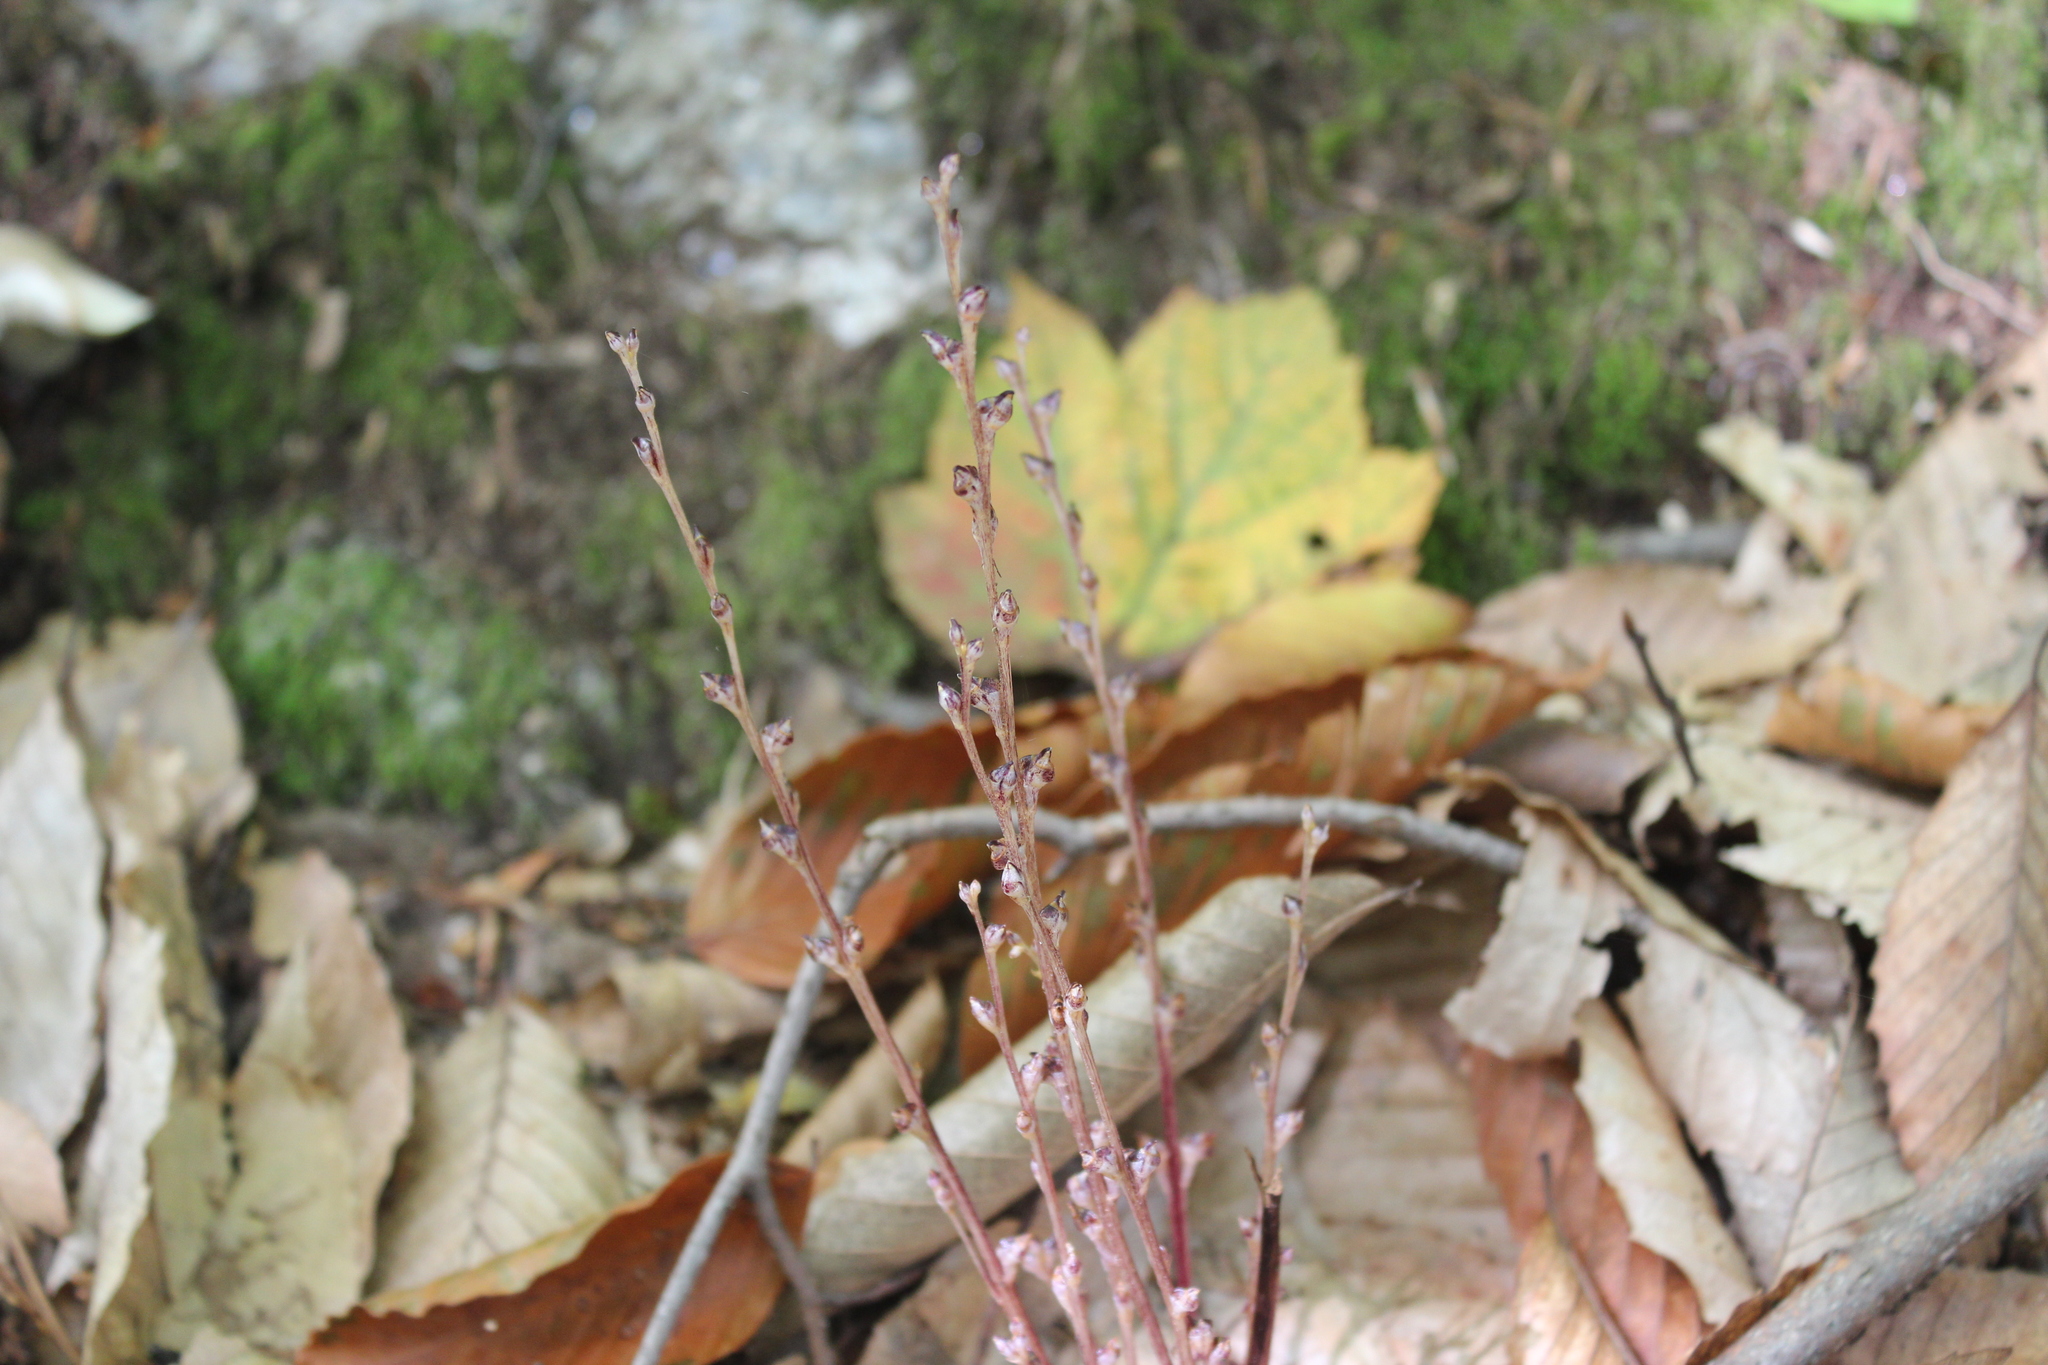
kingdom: Plantae
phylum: Tracheophyta
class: Magnoliopsida
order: Lamiales
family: Orobanchaceae
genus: Epifagus
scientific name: Epifagus virginiana
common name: Beechdrops
